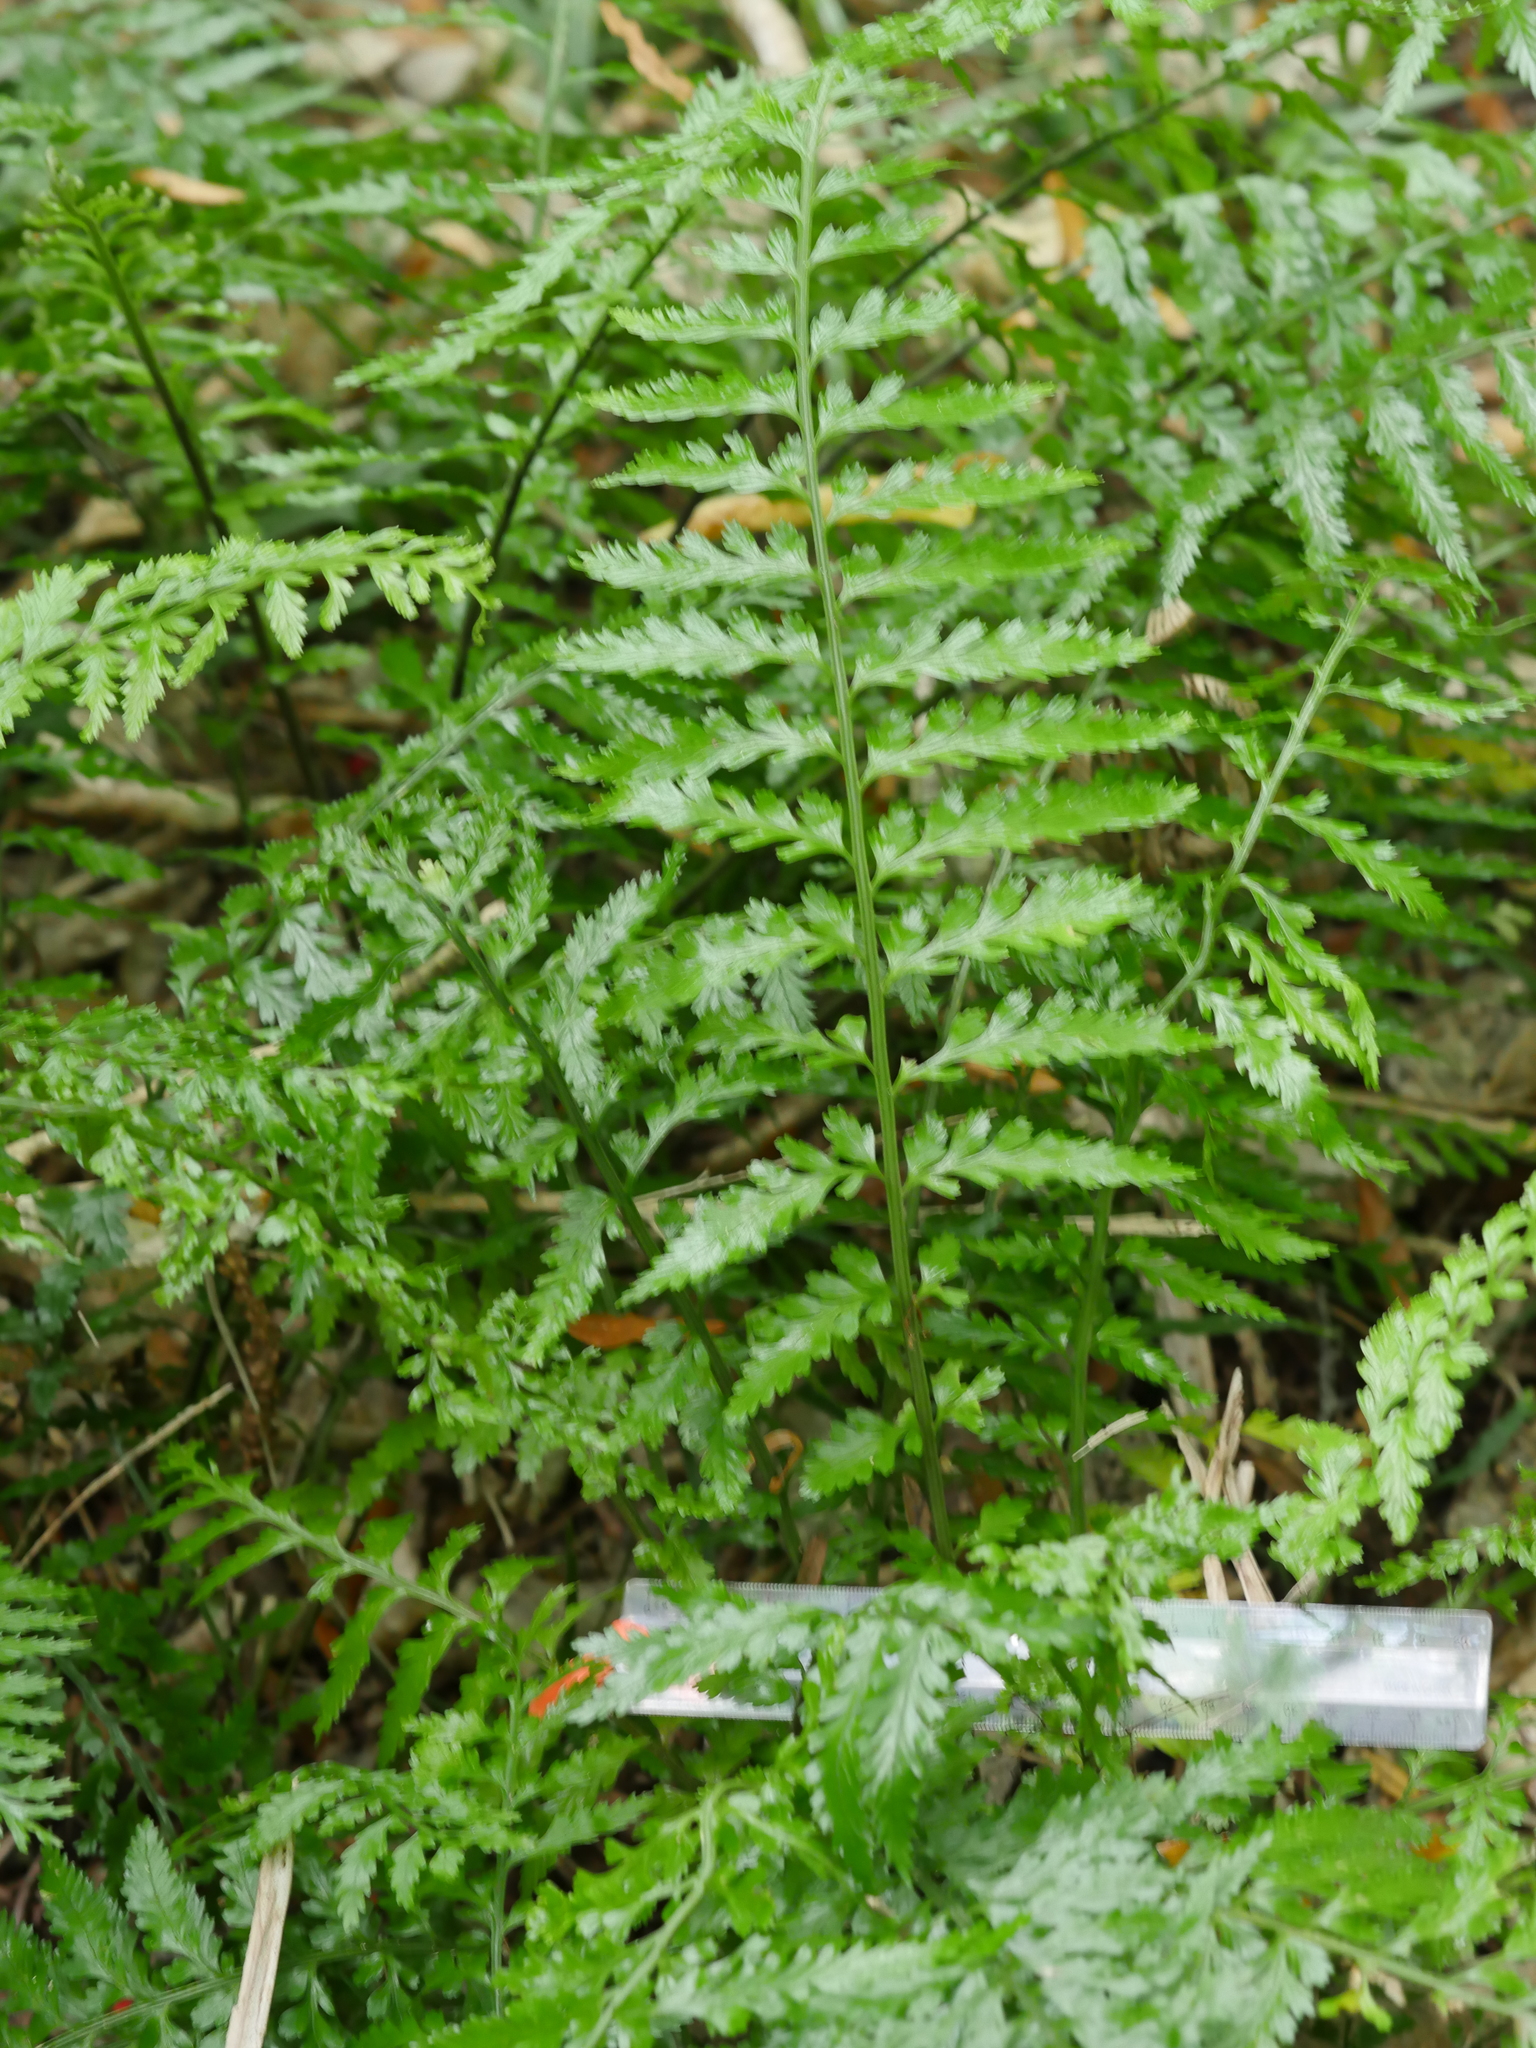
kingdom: Plantae
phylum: Tracheophyta
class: Polypodiopsida
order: Polypodiales
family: Aspleniaceae
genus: Asplenium
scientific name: Asplenium lamprophyllum
